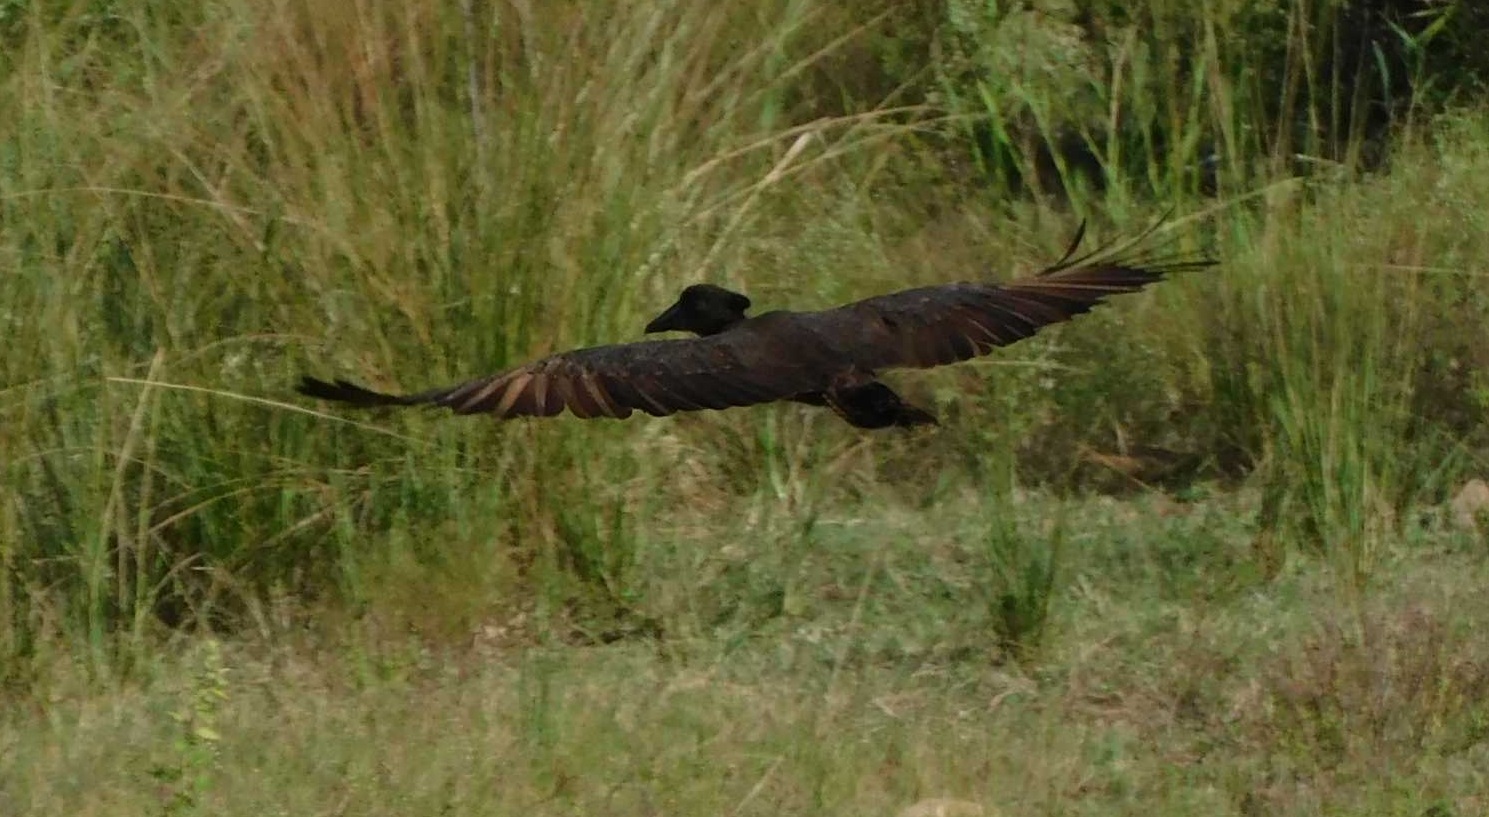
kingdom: Animalia
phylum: Chordata
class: Aves
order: Pelecaniformes
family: Scopidae
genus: Scopus
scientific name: Scopus umbretta
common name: Hamerkop
